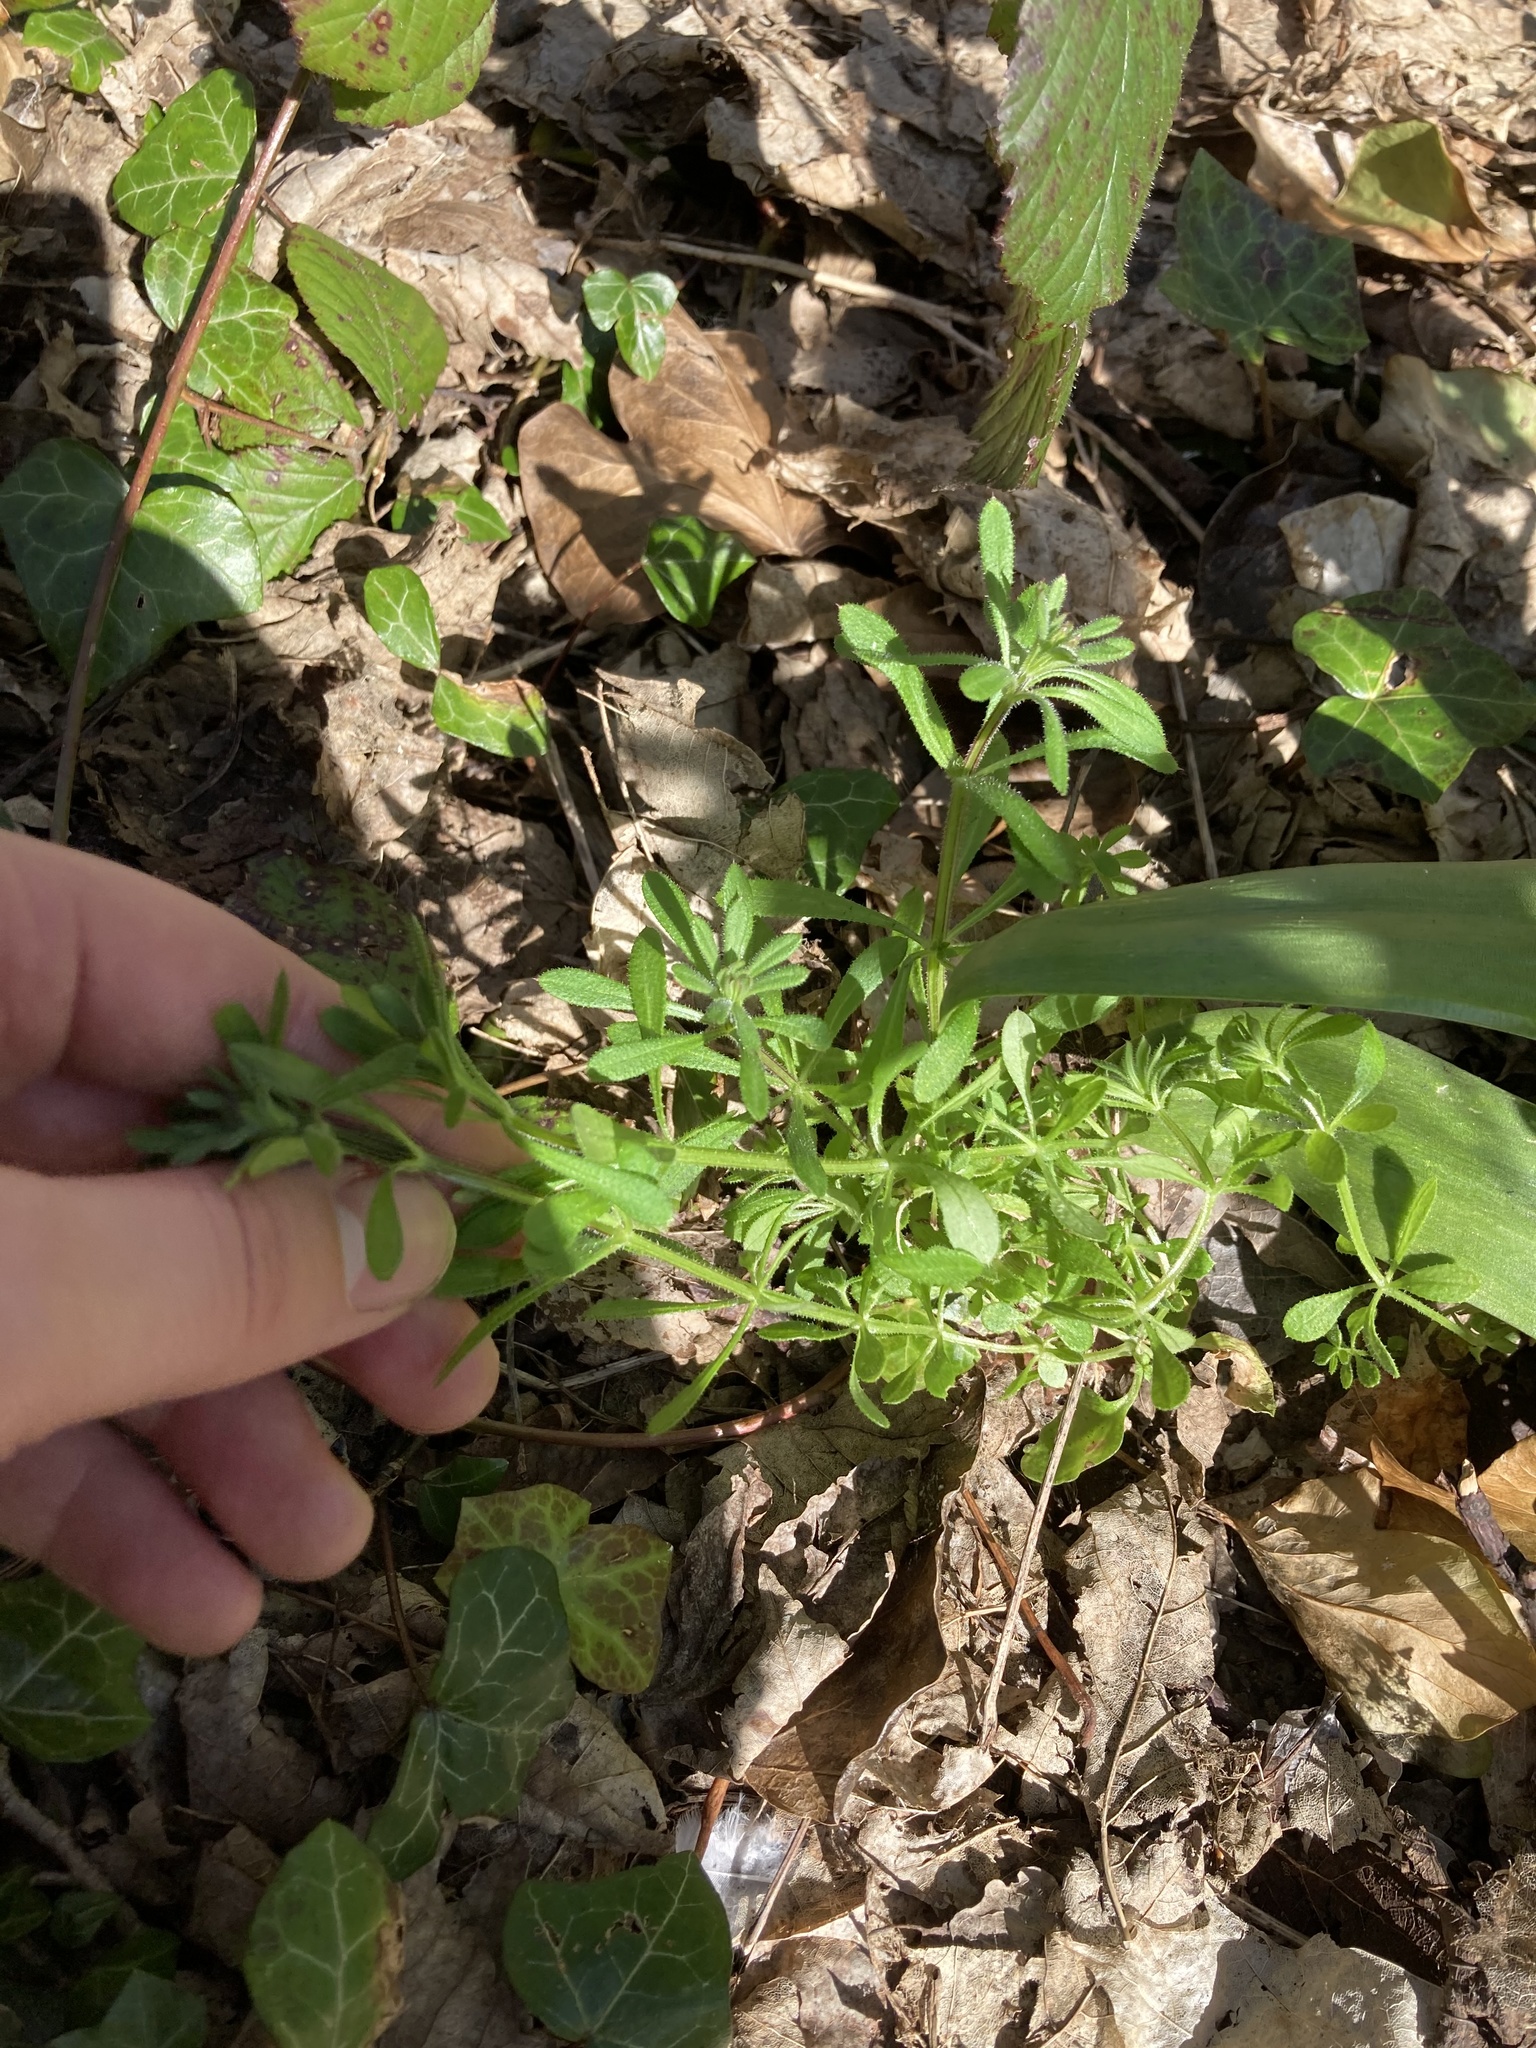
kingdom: Plantae
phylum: Tracheophyta
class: Magnoliopsida
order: Gentianales
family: Rubiaceae
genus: Galium
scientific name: Galium aparine
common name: Cleavers
